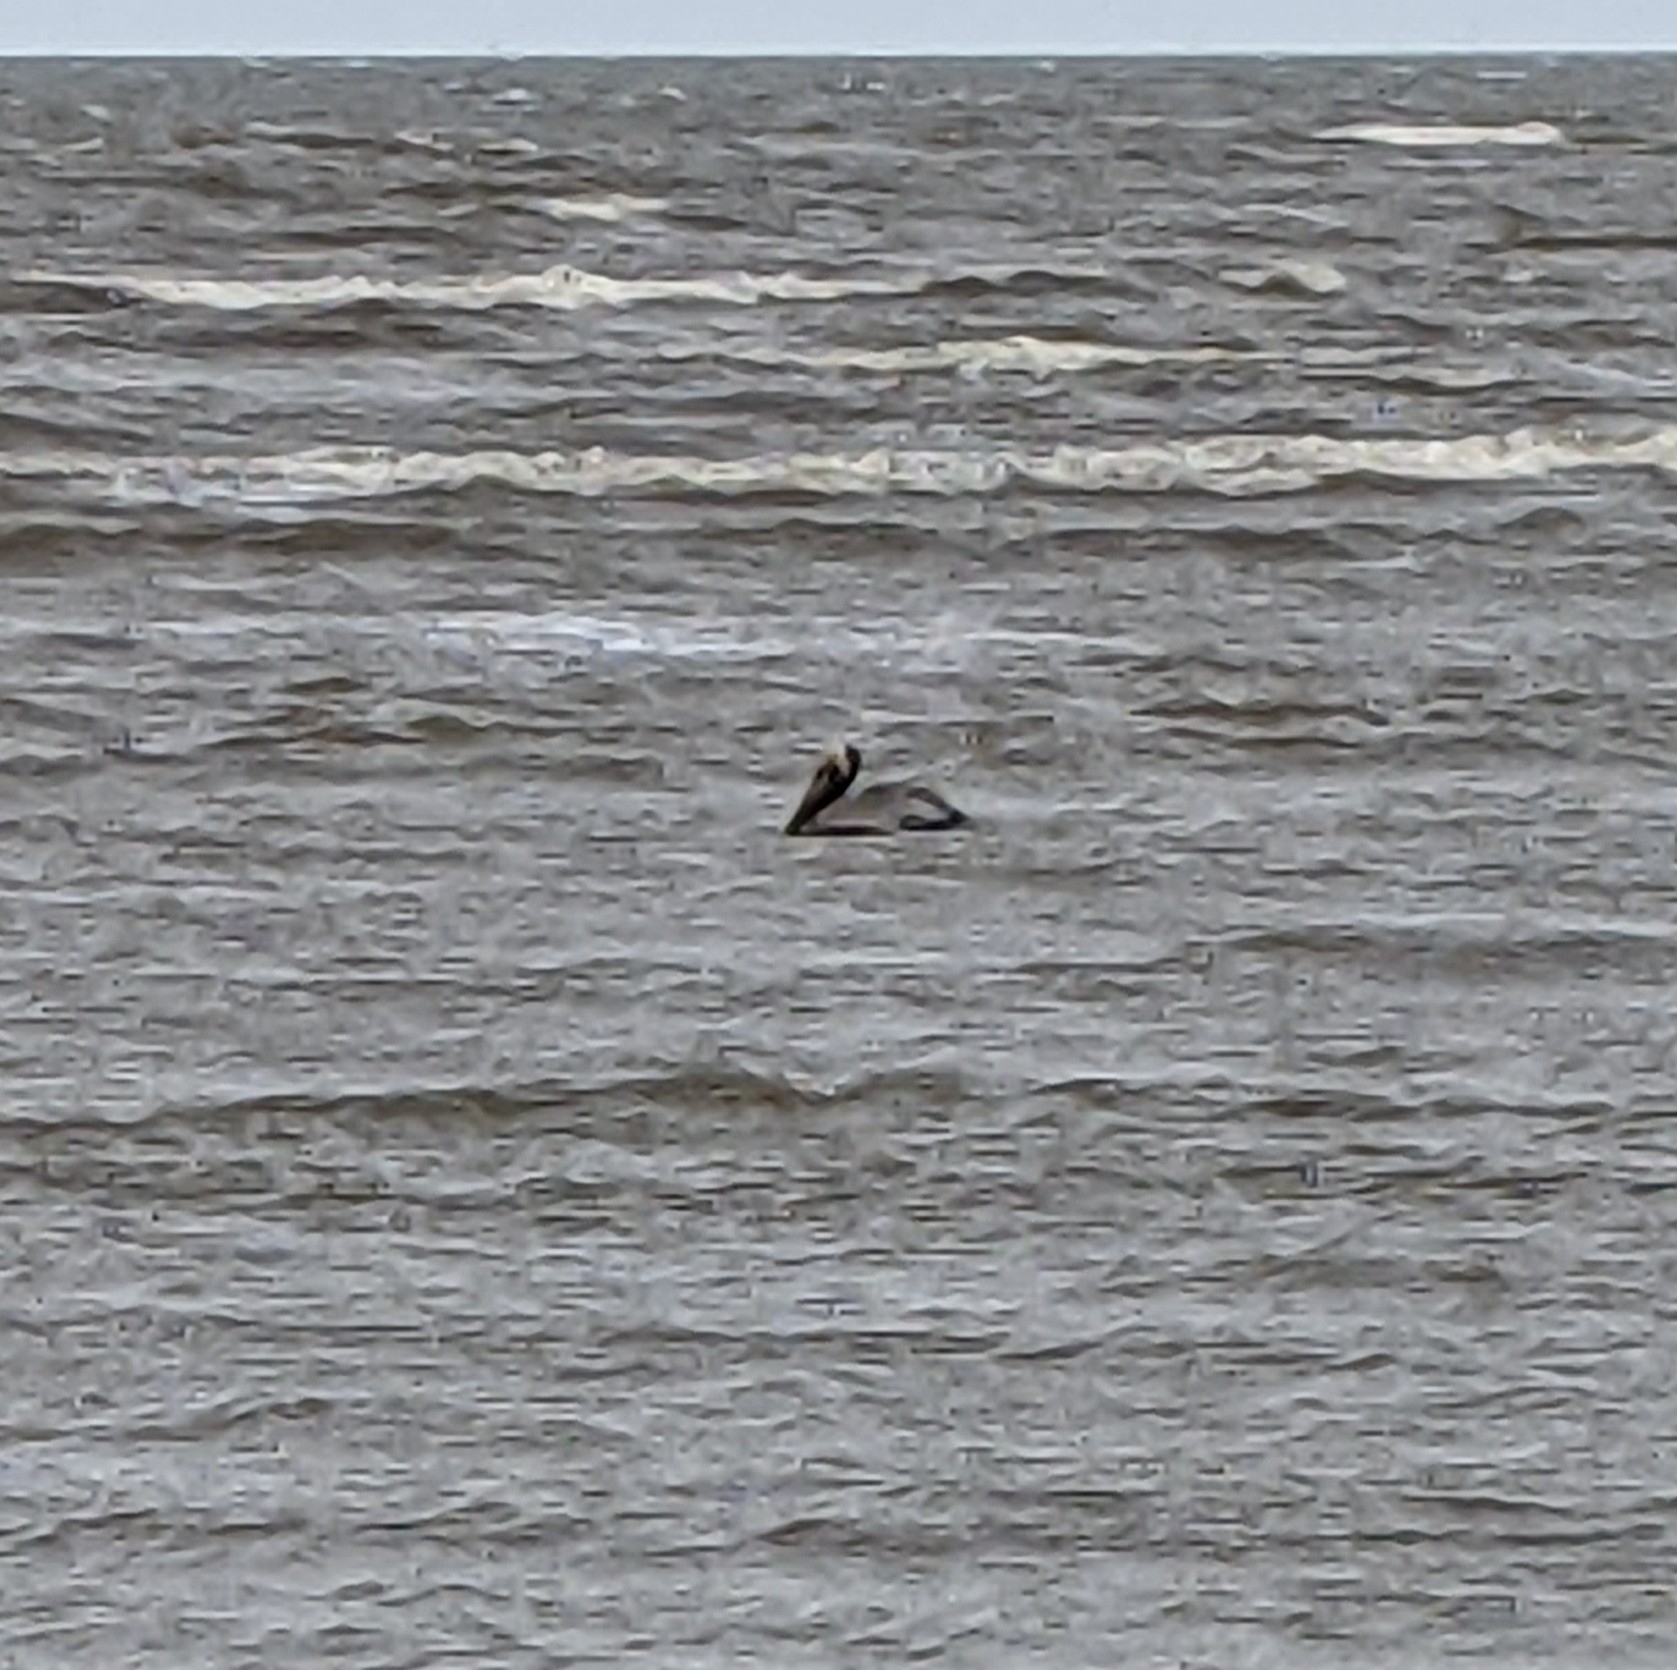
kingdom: Animalia
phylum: Chordata
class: Aves
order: Pelecaniformes
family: Pelecanidae
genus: Pelecanus
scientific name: Pelecanus occidentalis
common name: Brown pelican
